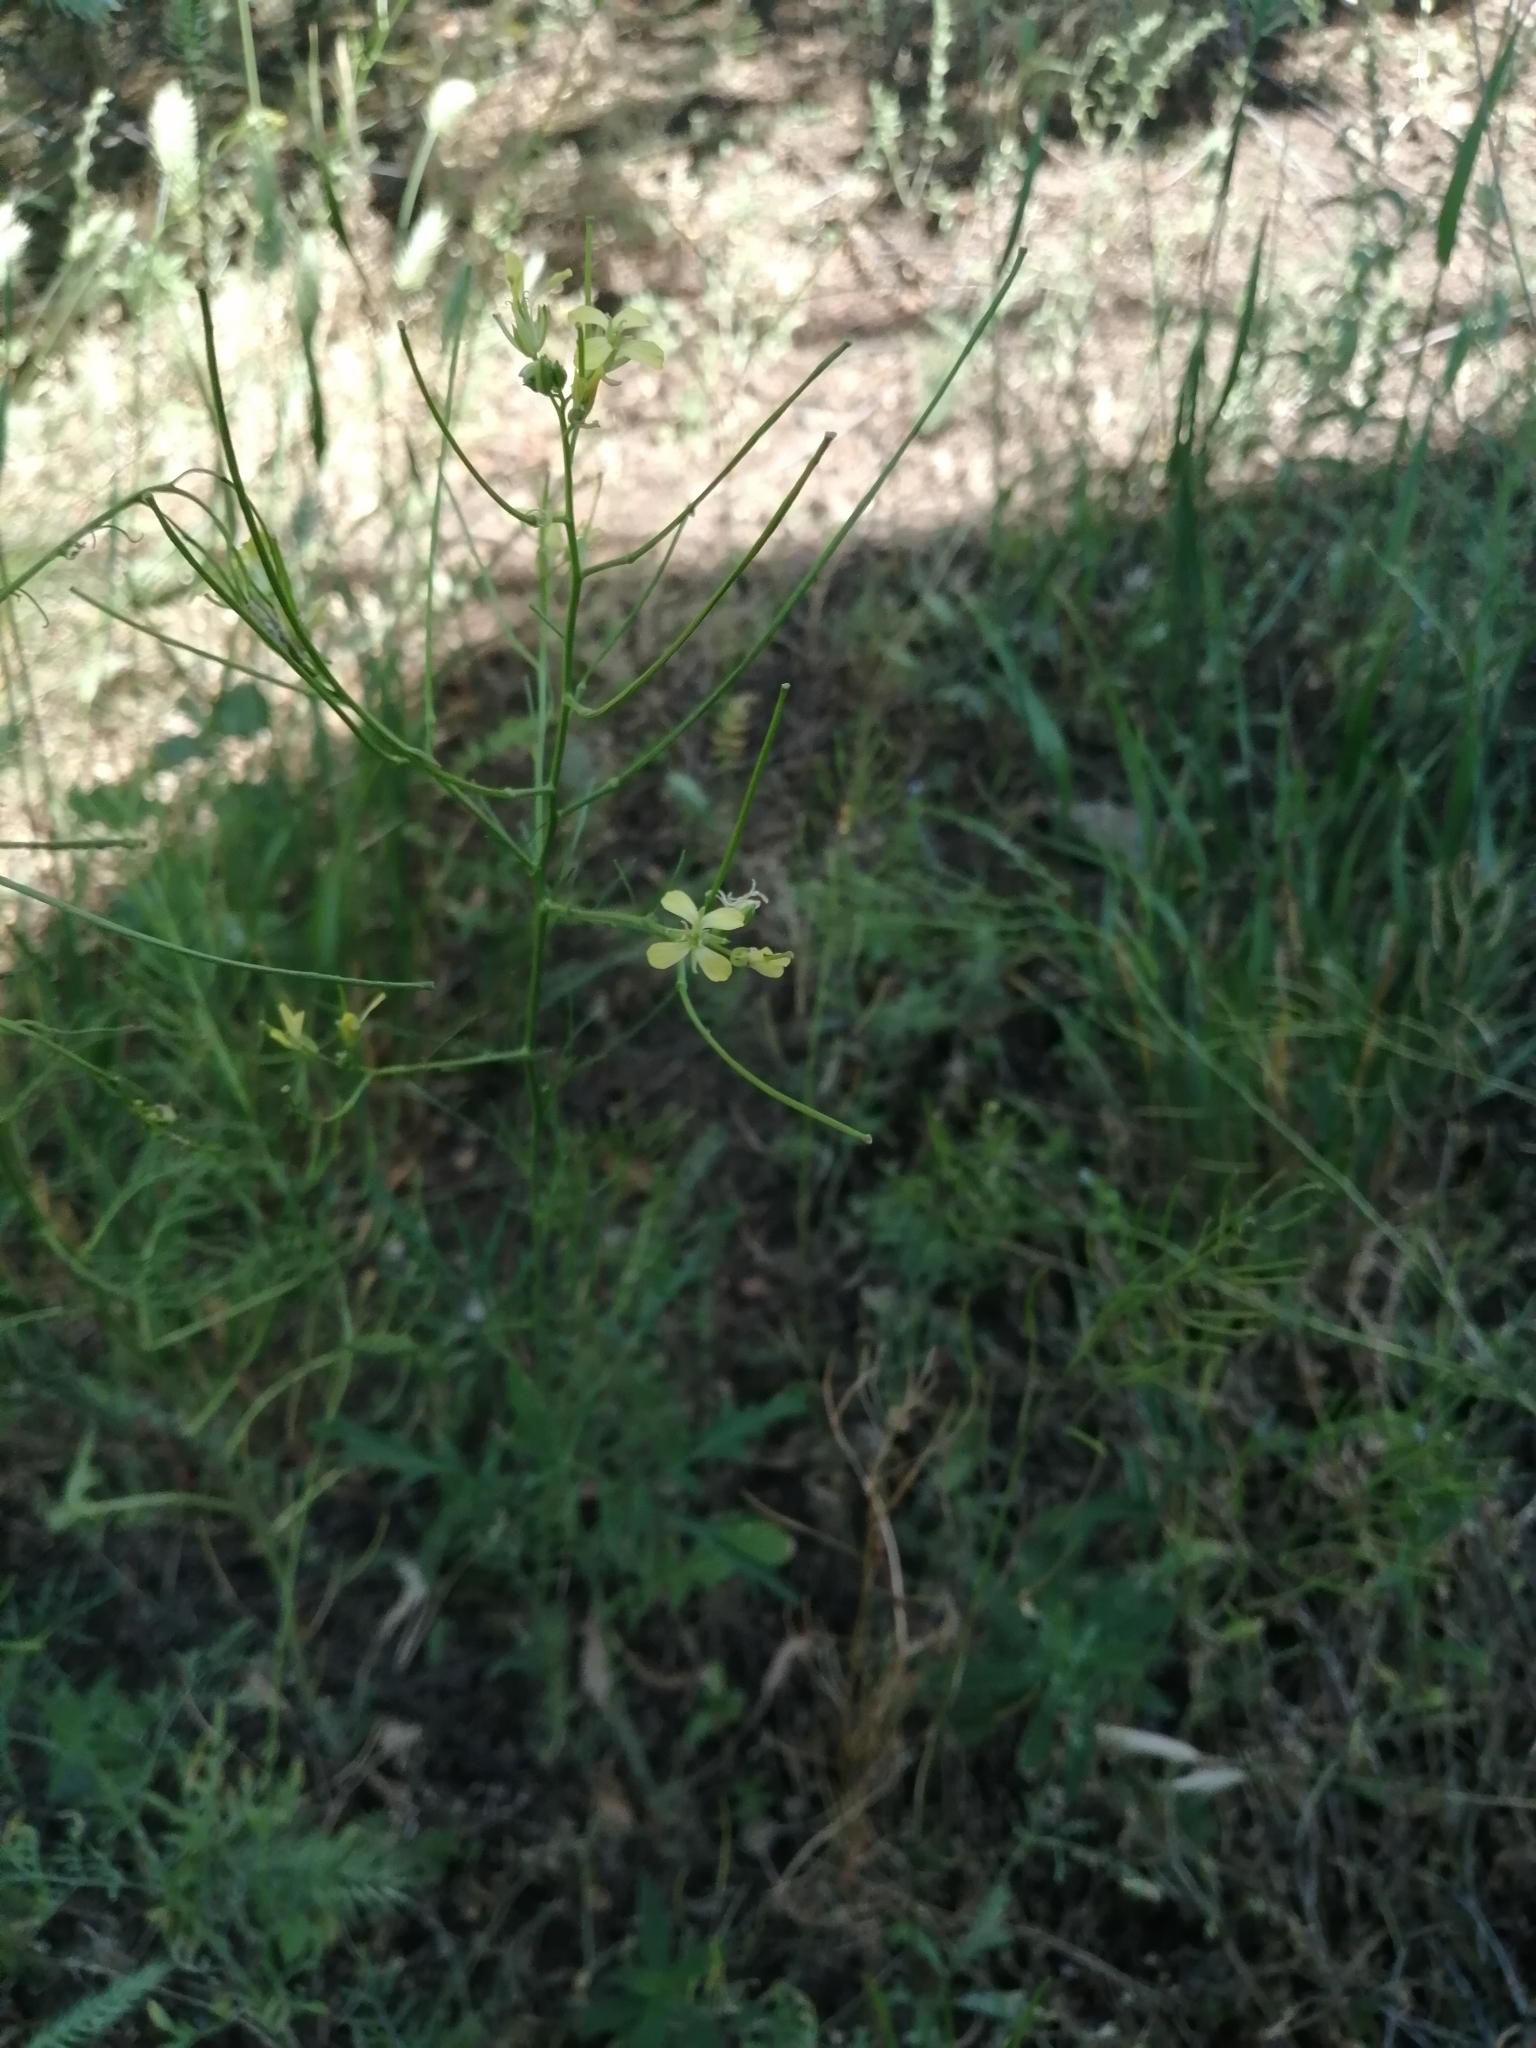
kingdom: Plantae
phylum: Tracheophyta
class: Magnoliopsida
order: Brassicales
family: Brassicaceae
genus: Sisymbrium
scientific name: Sisymbrium altissimum
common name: Tall rocket
